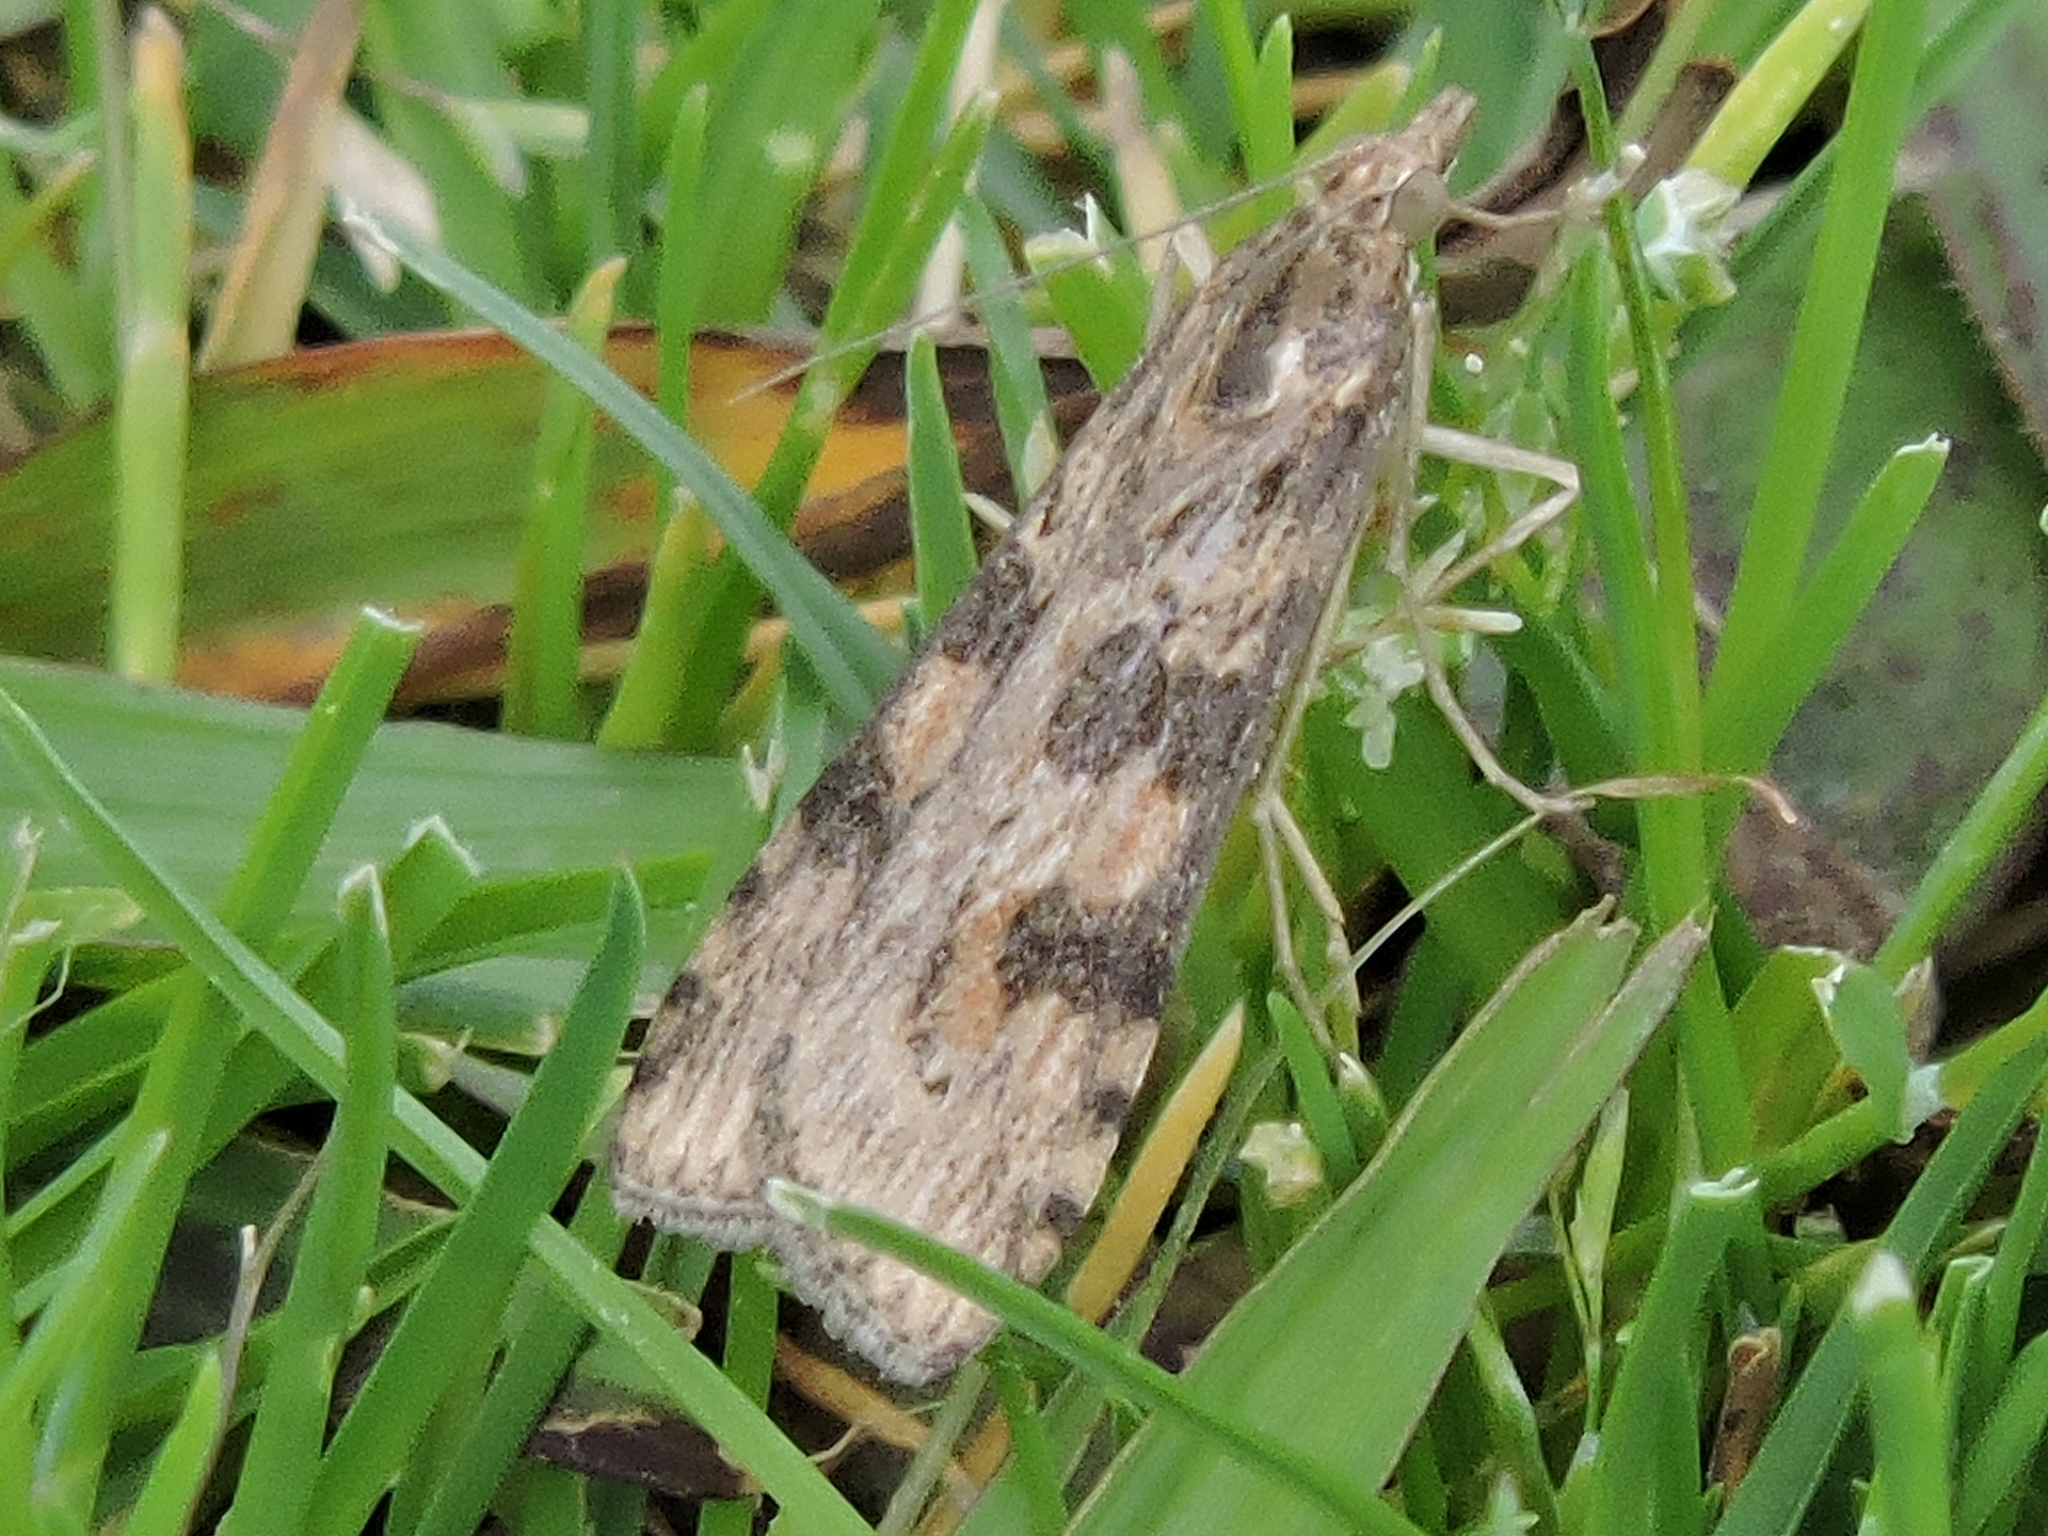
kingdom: Animalia
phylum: Arthropoda
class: Insecta
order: Lepidoptera
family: Crambidae
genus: Nomophila
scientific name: Nomophila nearctica
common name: American rush veneer
